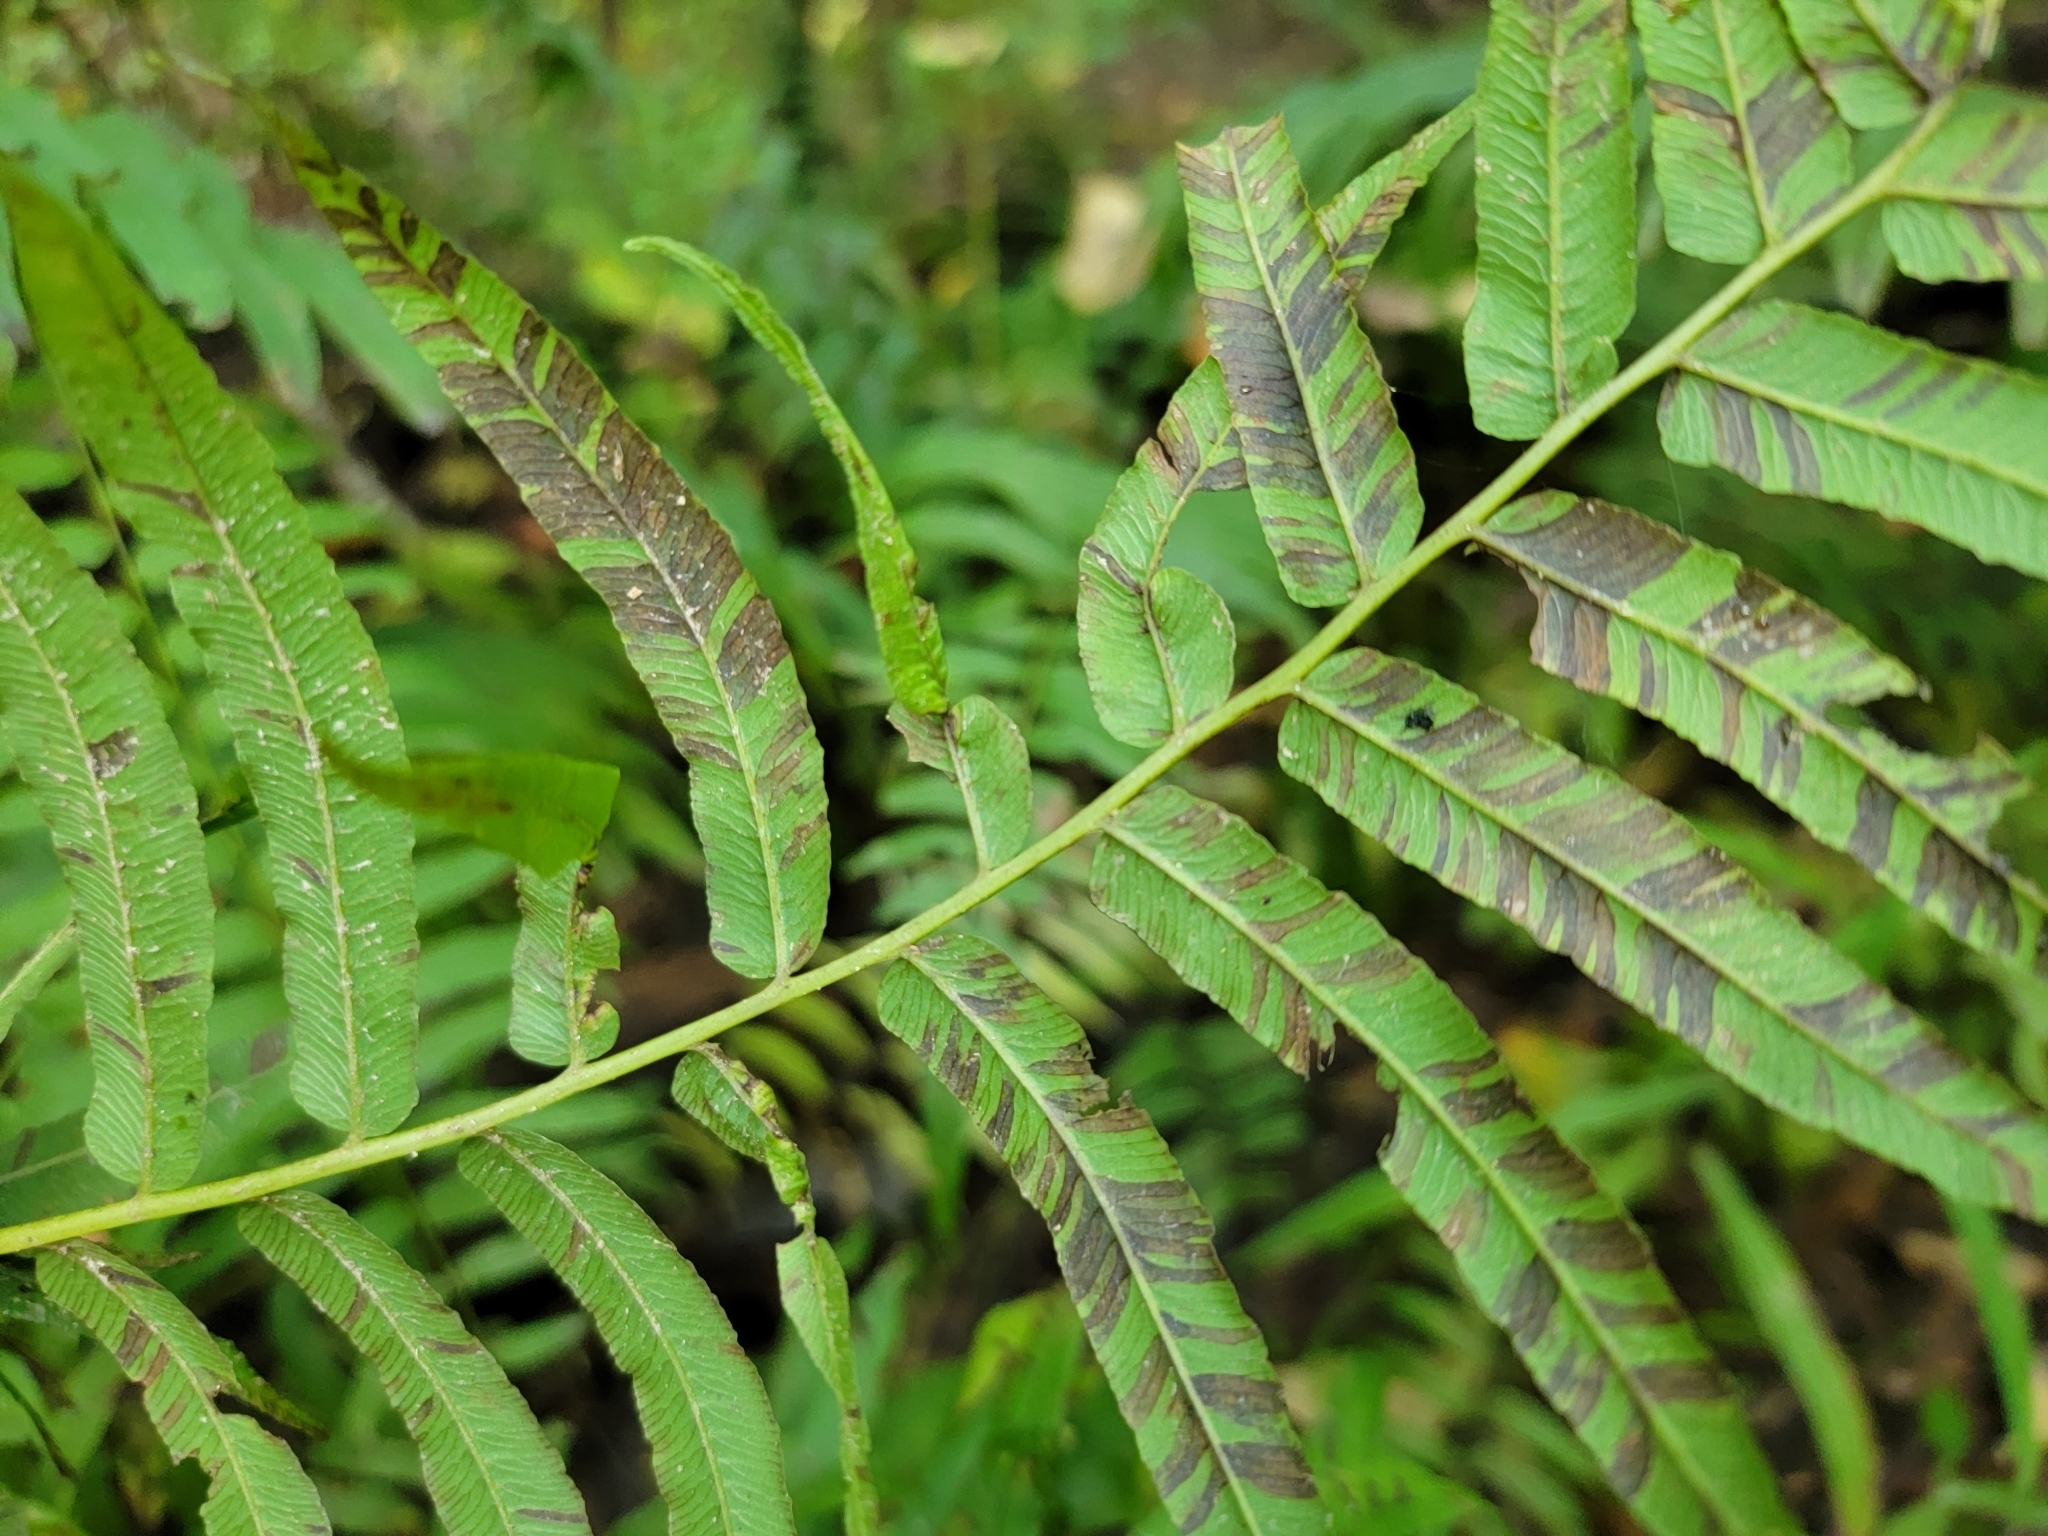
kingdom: Plantae
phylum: Tracheophyta
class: Polypodiopsida
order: Polypodiales
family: Diplaziopsidaceae
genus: Homalosorus
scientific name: Homalosorus pycnocarpos
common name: Glade fern
